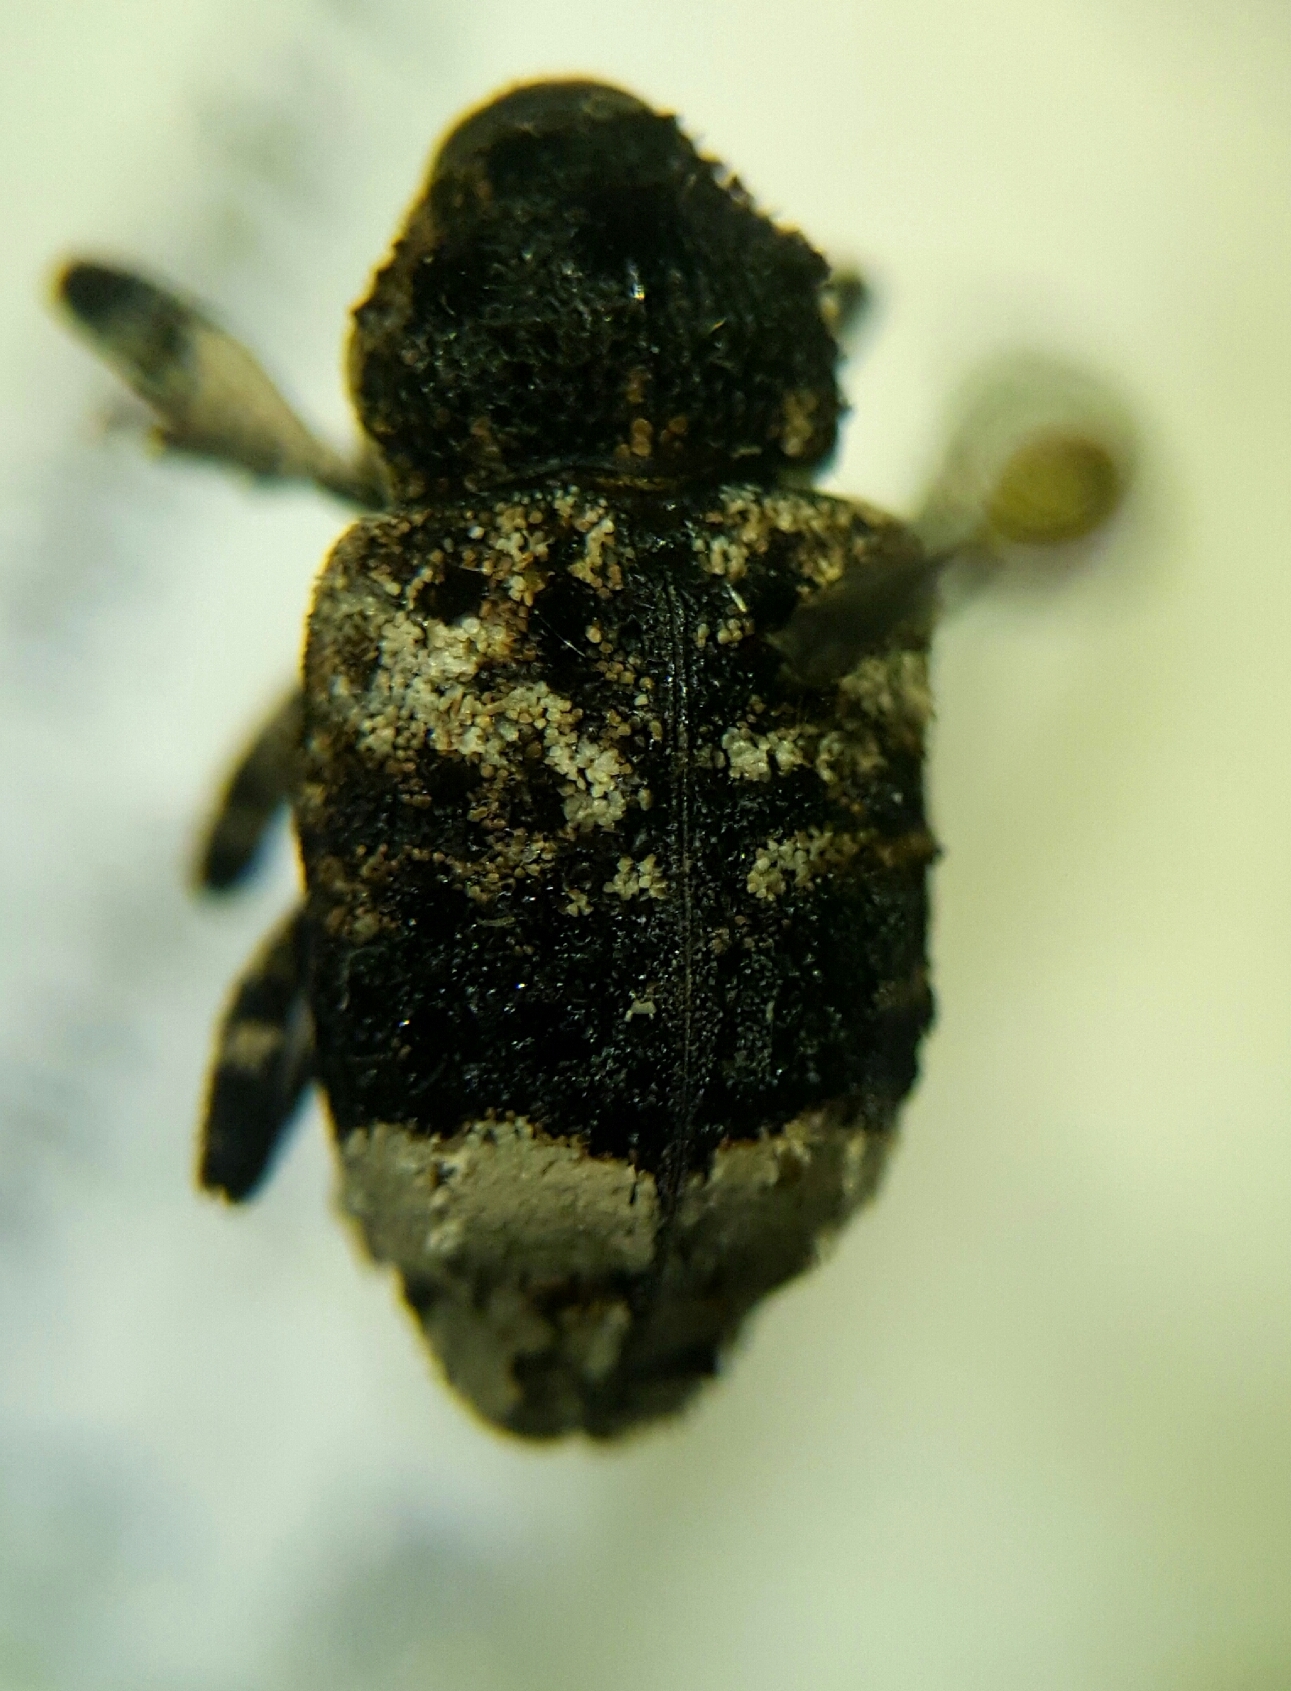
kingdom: Animalia
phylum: Arthropoda
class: Insecta
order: Coleoptera
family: Curculionidae
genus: Cryptorhynchus
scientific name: Cryptorhynchus lapathi
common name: Weevil
